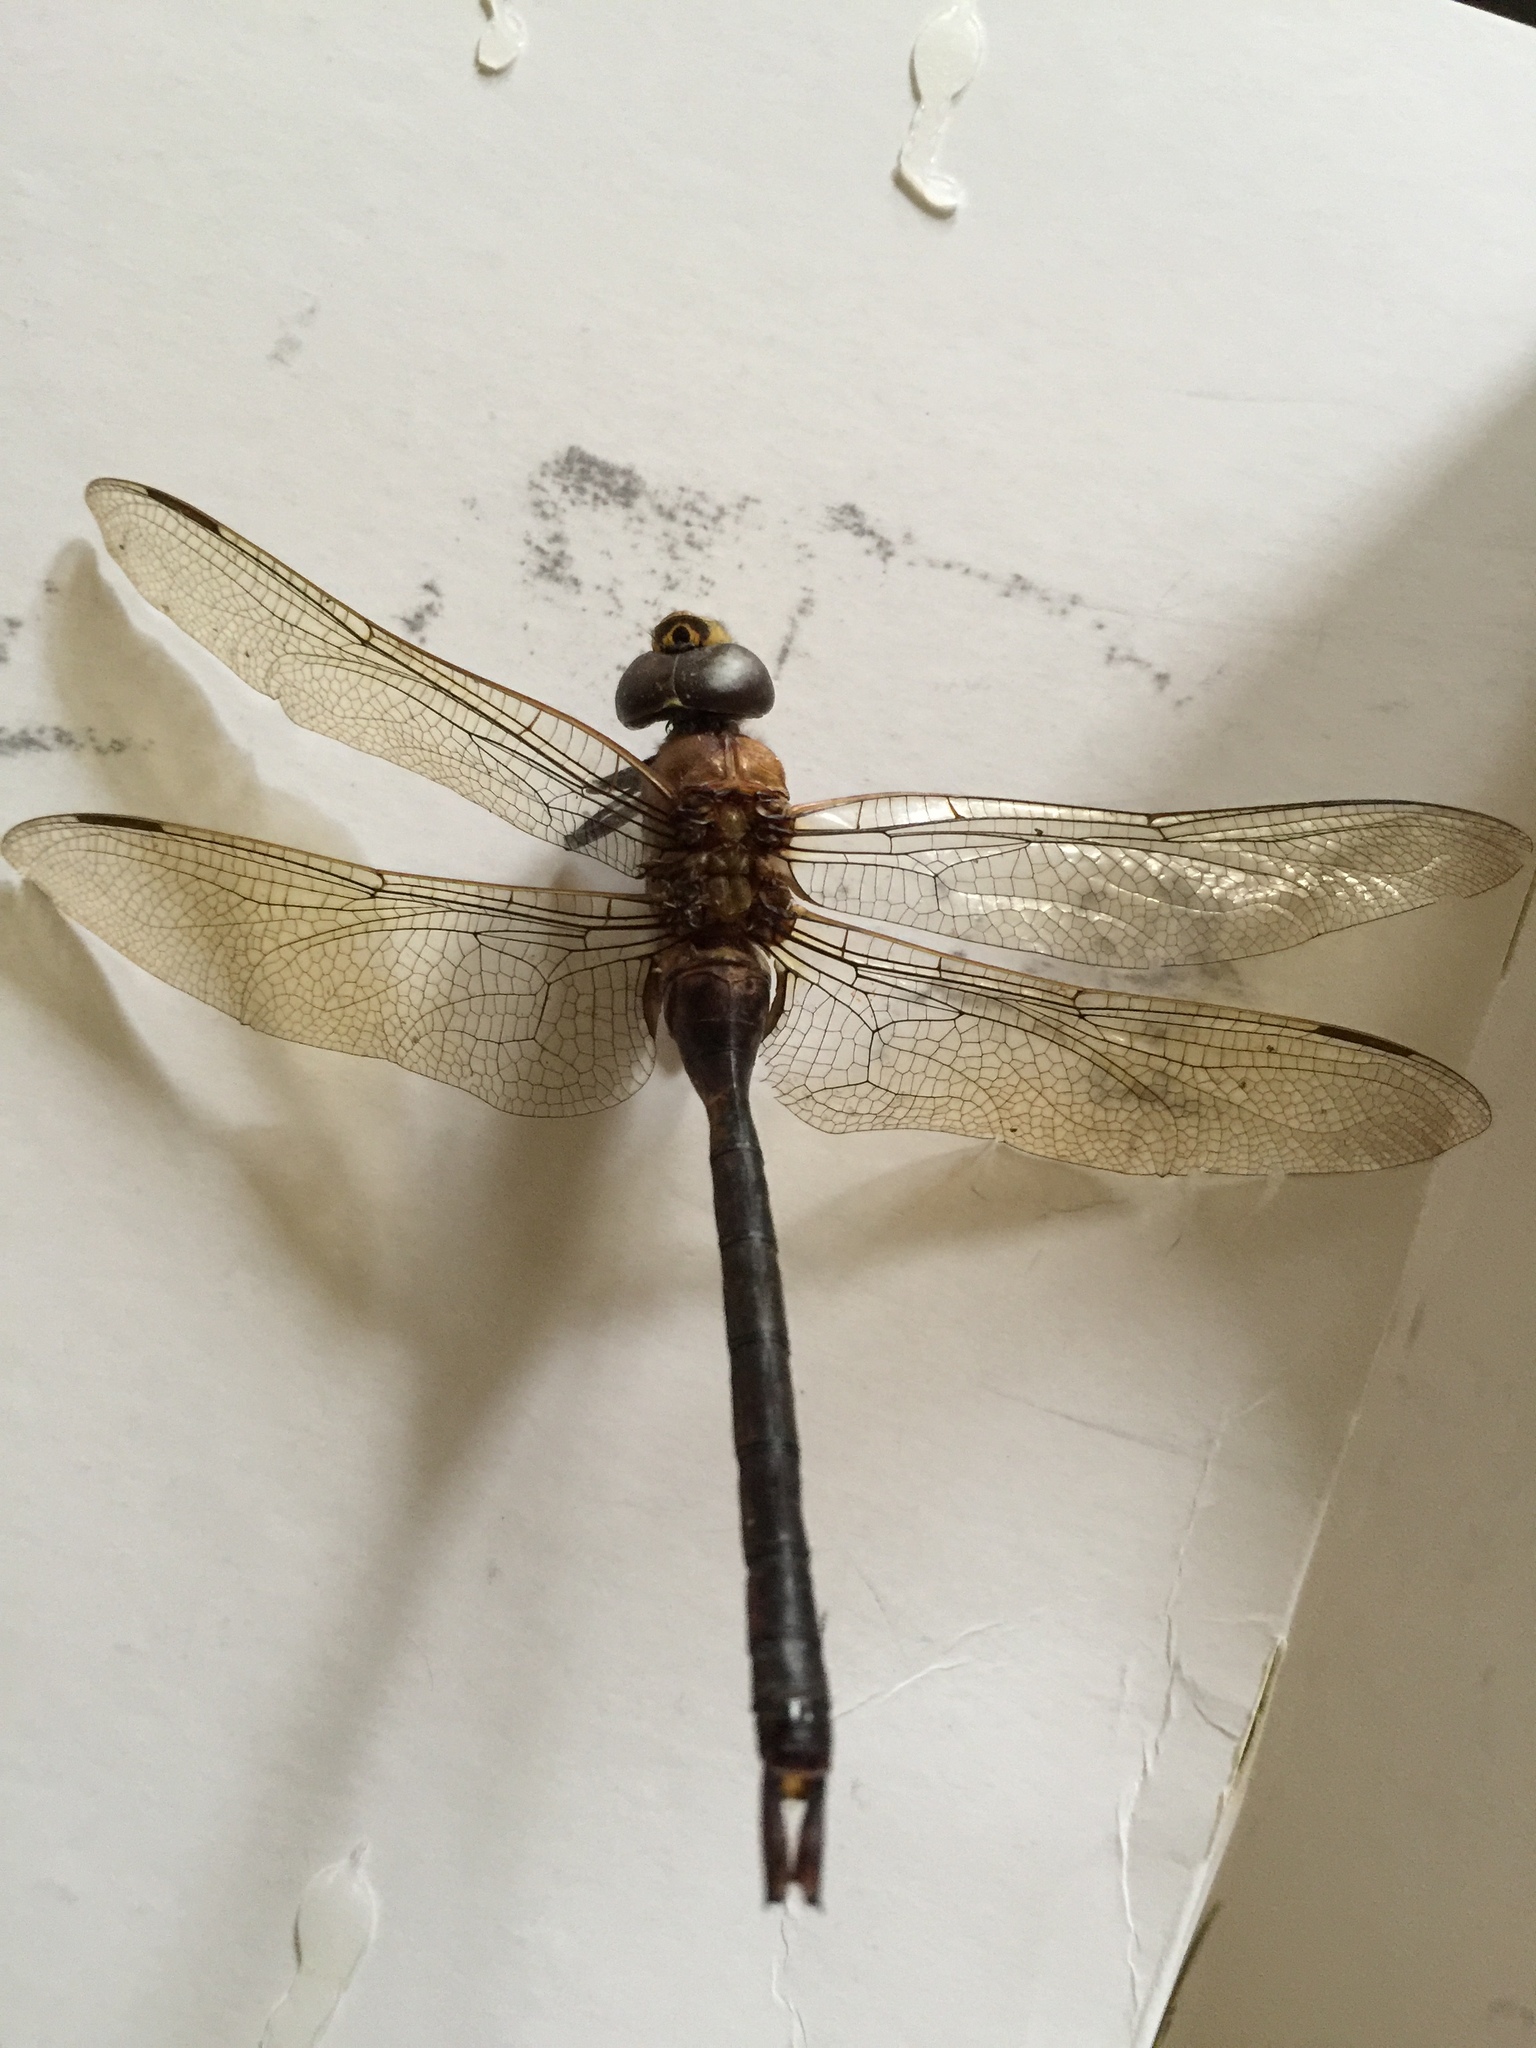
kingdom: Animalia
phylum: Arthropoda
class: Insecta
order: Odonata
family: Aeshnidae
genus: Anax
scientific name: Anax junius
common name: Common green darner
